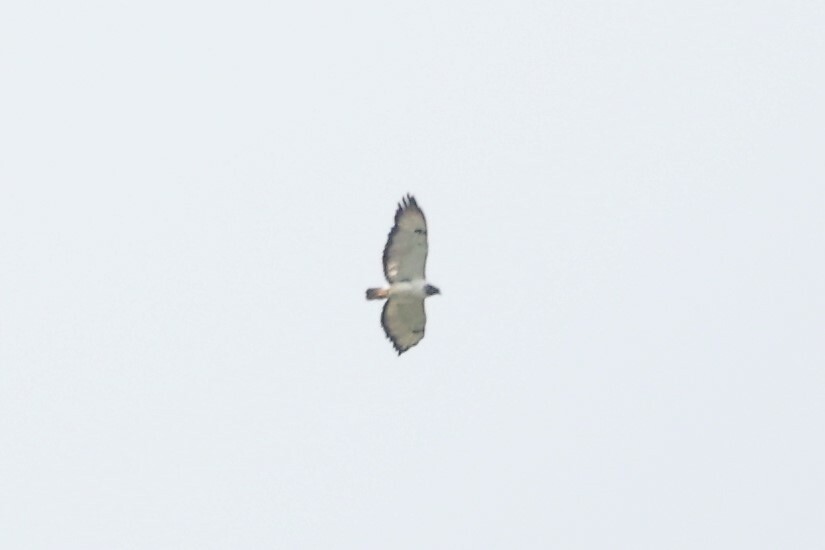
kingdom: Animalia
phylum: Chordata
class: Aves
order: Accipitriformes
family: Accipitridae
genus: Buteo
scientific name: Buteo augur
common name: Augur buzzard
